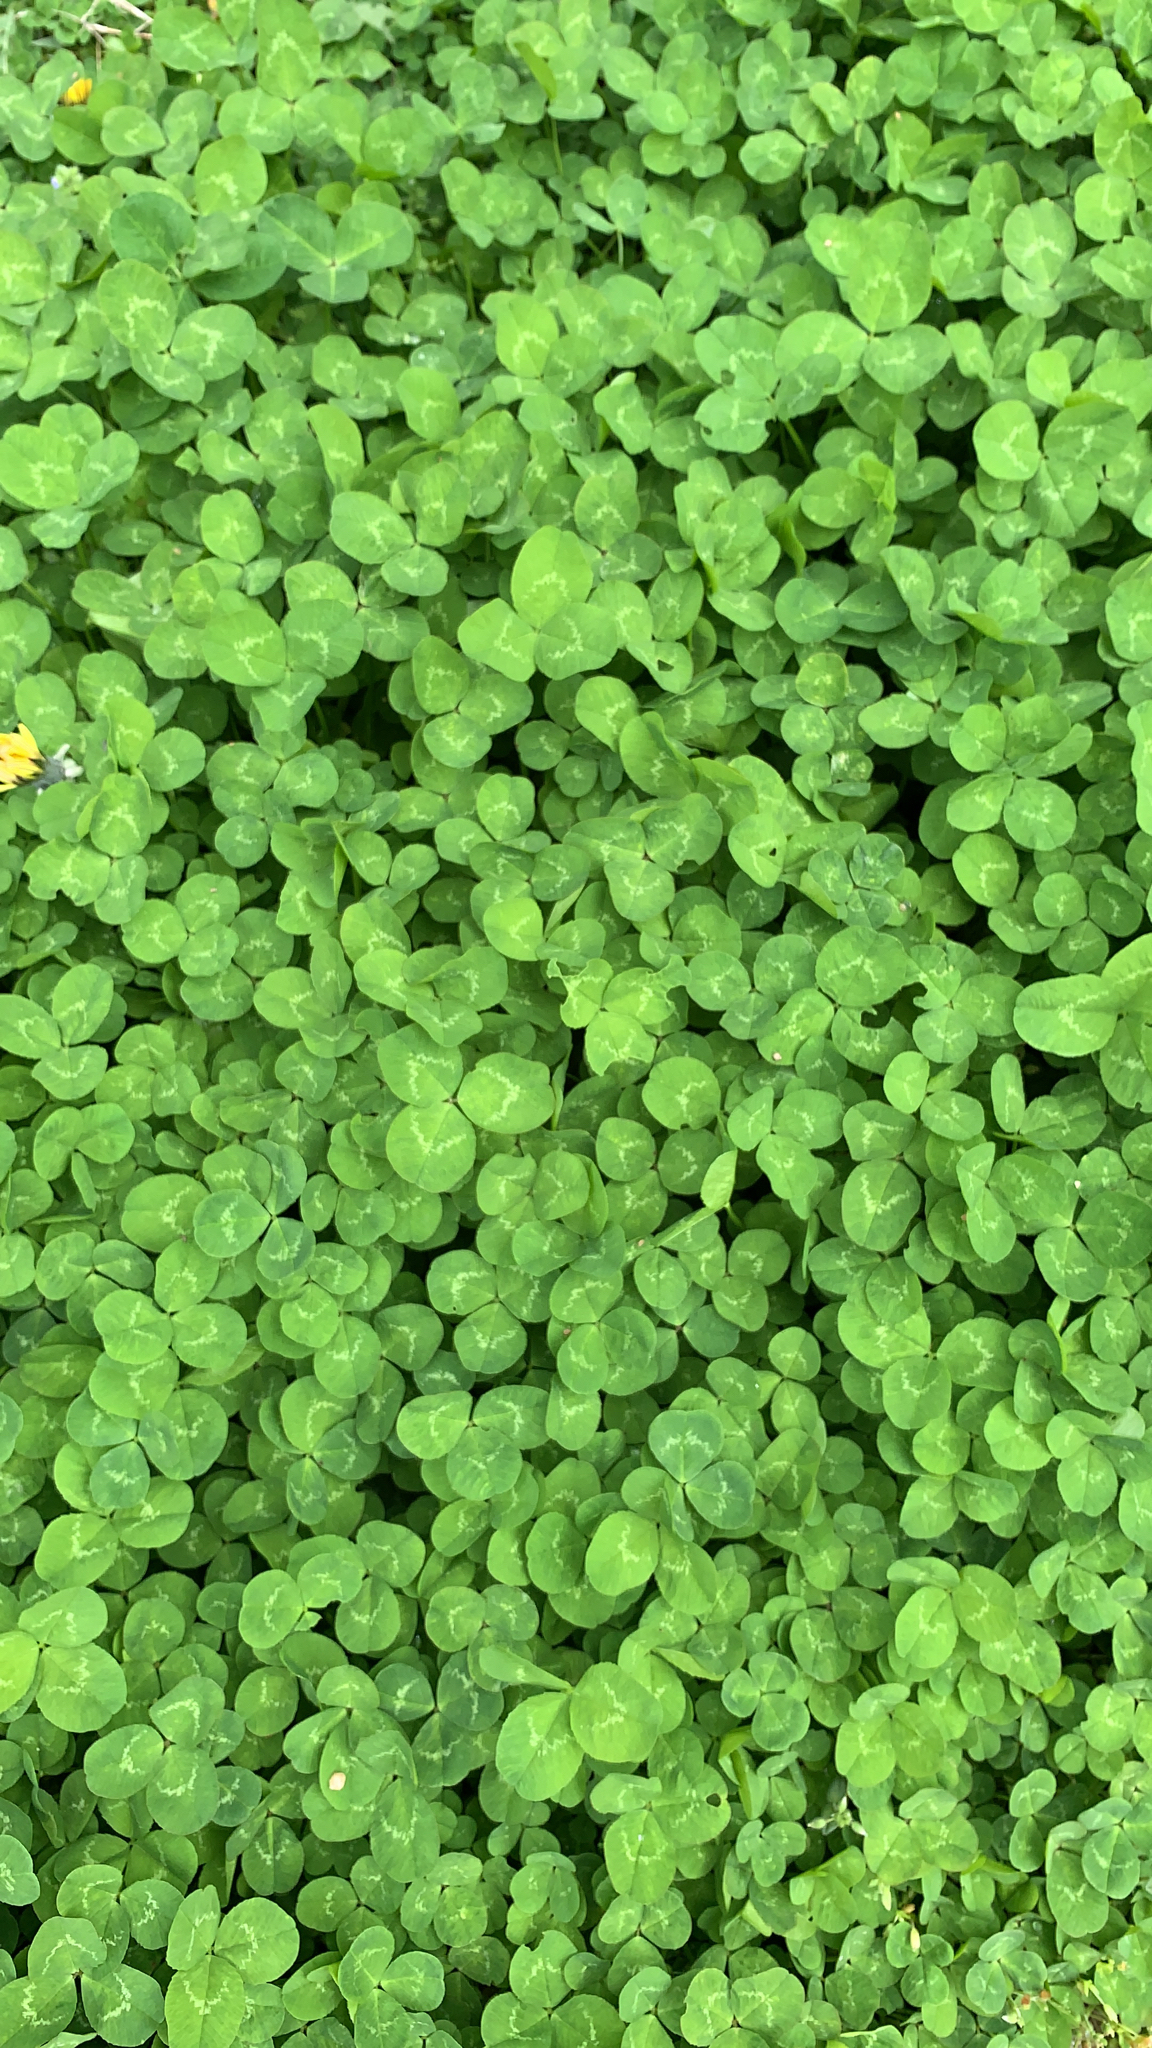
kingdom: Plantae
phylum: Tracheophyta
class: Magnoliopsida
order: Fabales
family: Fabaceae
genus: Trifolium
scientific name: Trifolium repens
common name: White clover
